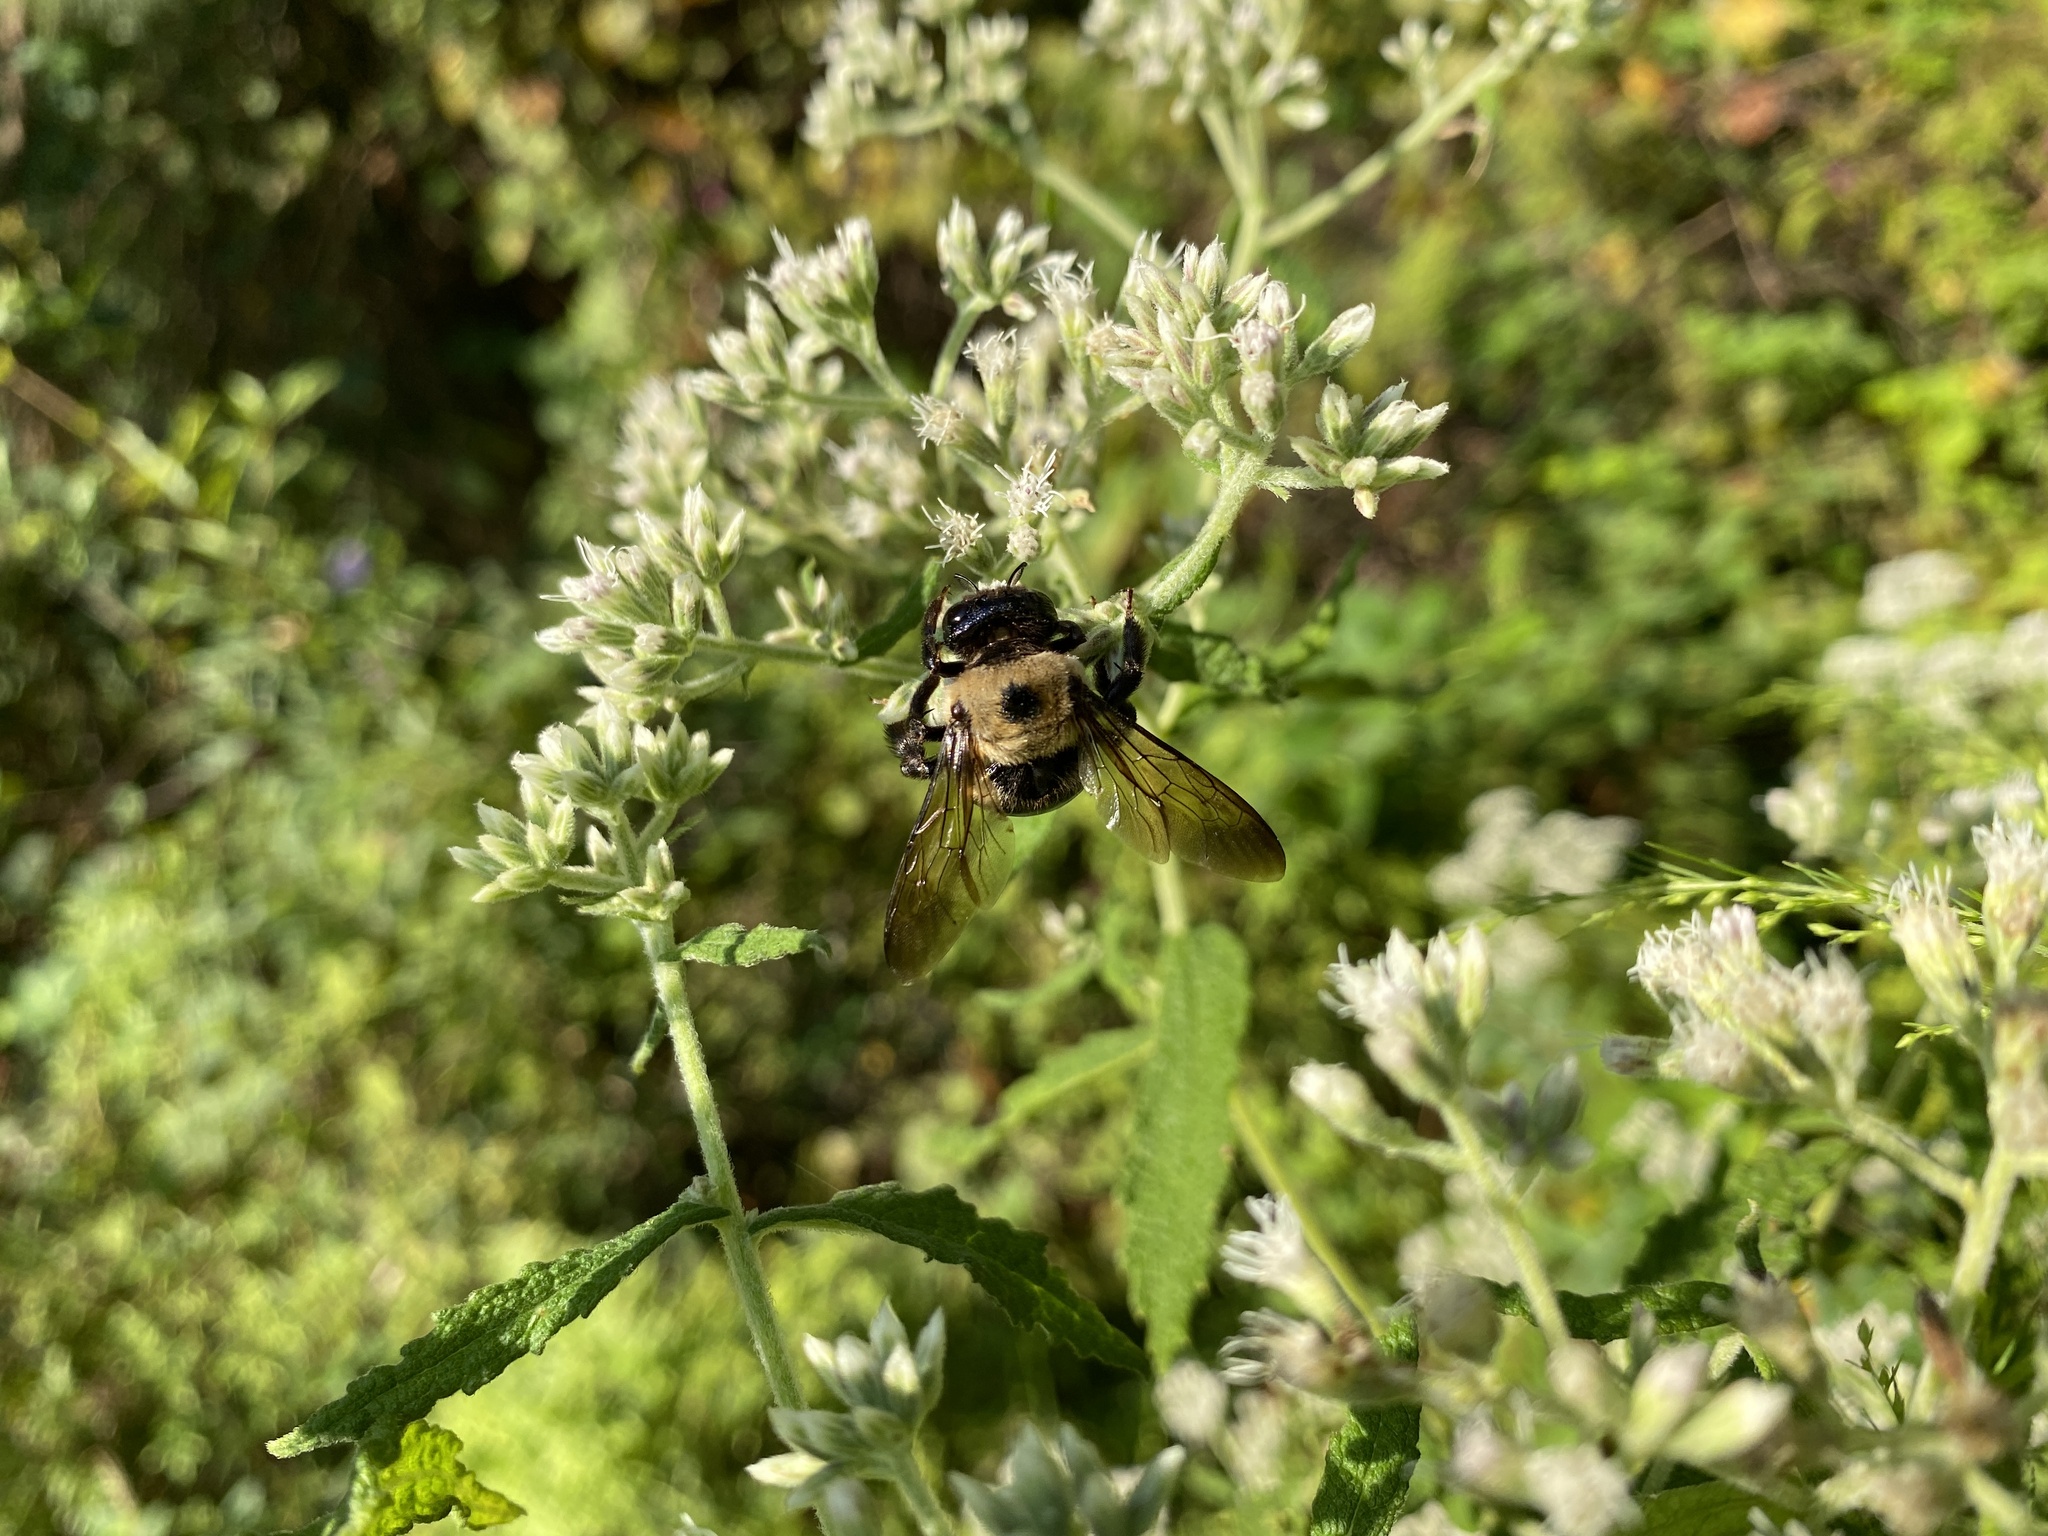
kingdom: Plantae
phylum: Tracheophyta
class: Magnoliopsida
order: Asterales
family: Asteraceae
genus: Eupatorium
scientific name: Eupatorium perfoliatum
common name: Boneset
